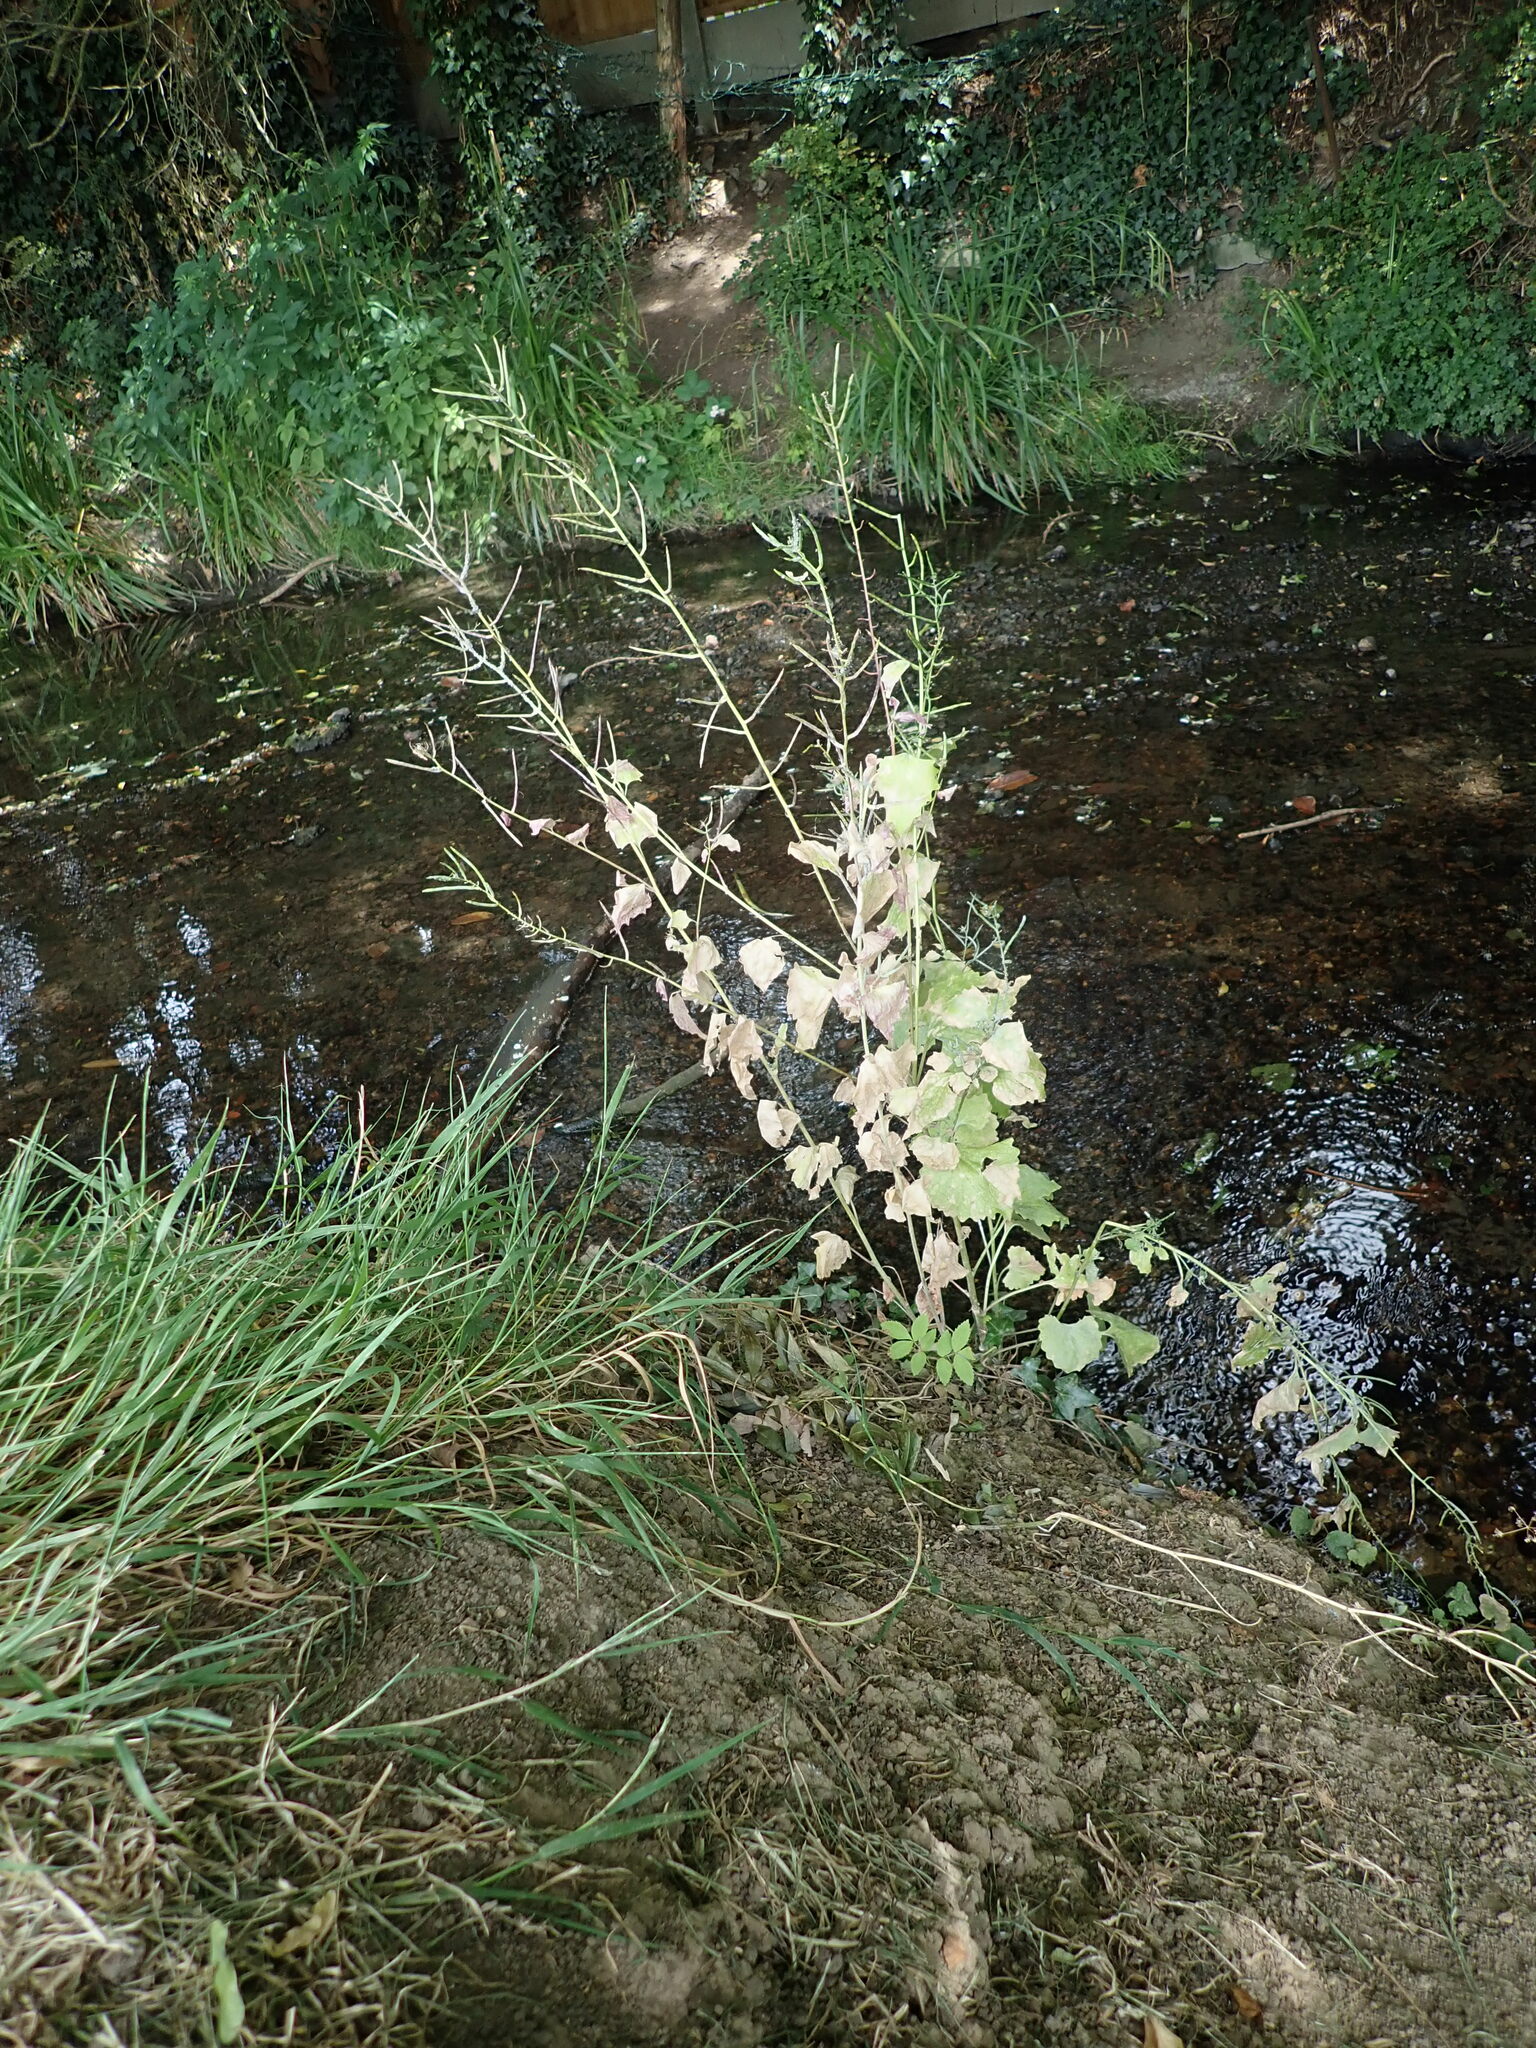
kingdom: Plantae
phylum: Tracheophyta
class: Magnoliopsida
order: Brassicales
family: Brassicaceae
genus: Alliaria
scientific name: Alliaria petiolata
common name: Garlic mustard
